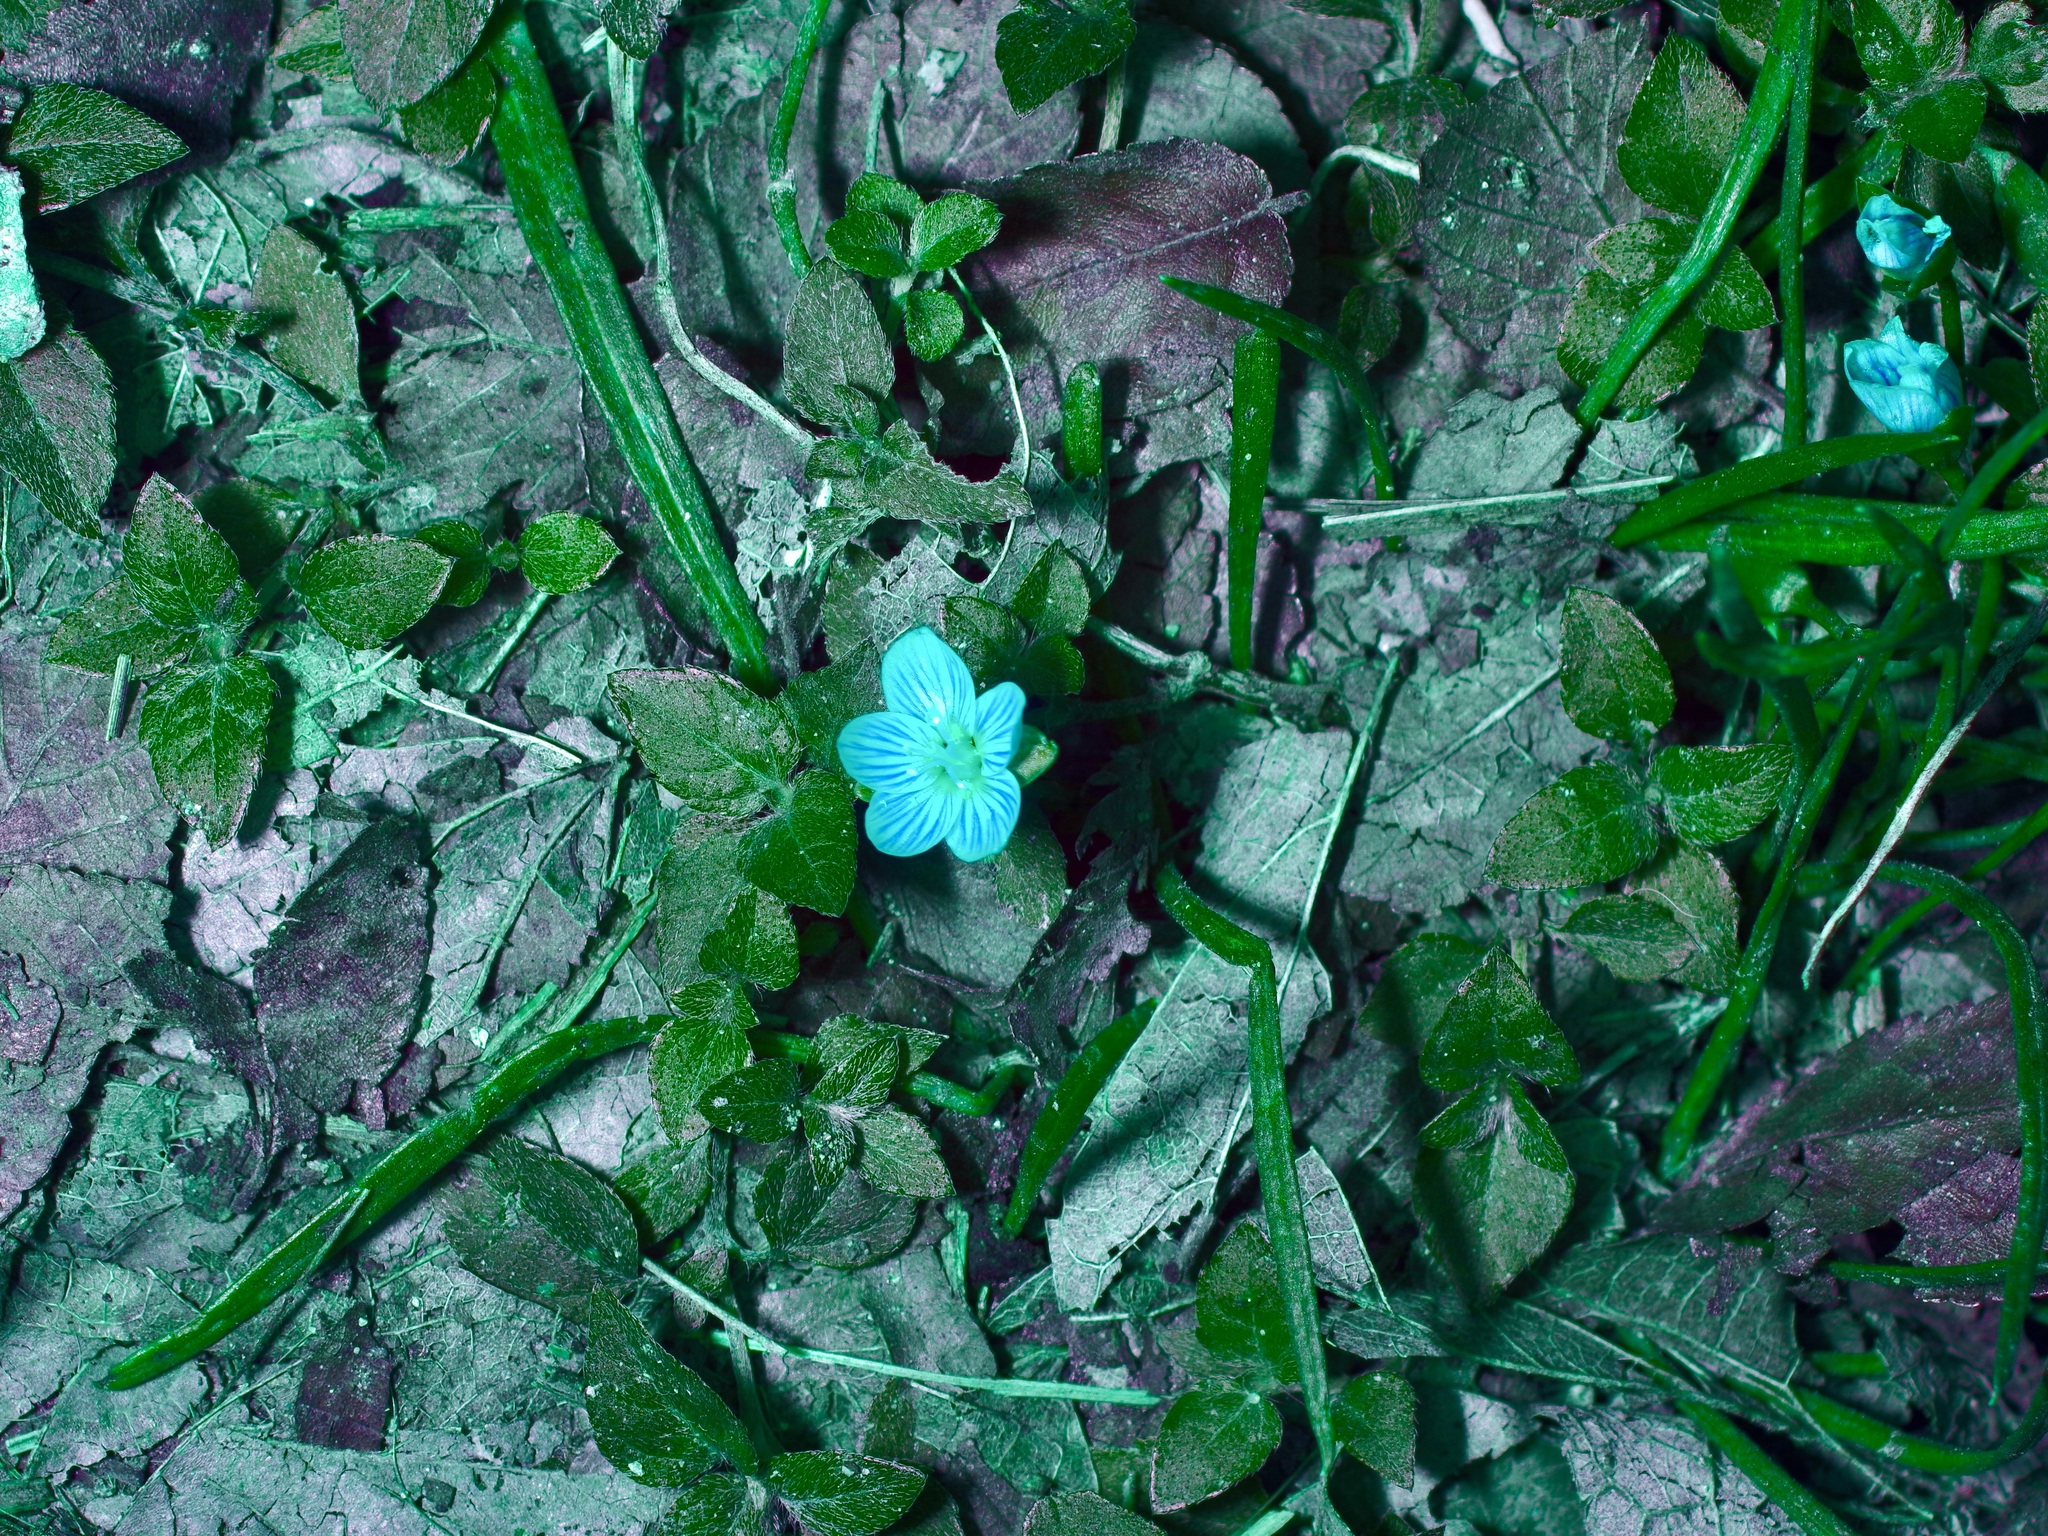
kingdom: Plantae
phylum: Tracheophyta
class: Magnoliopsida
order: Caryophyllales
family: Montiaceae
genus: Claytonia
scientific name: Claytonia virginica
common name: Virginia springbeauty
